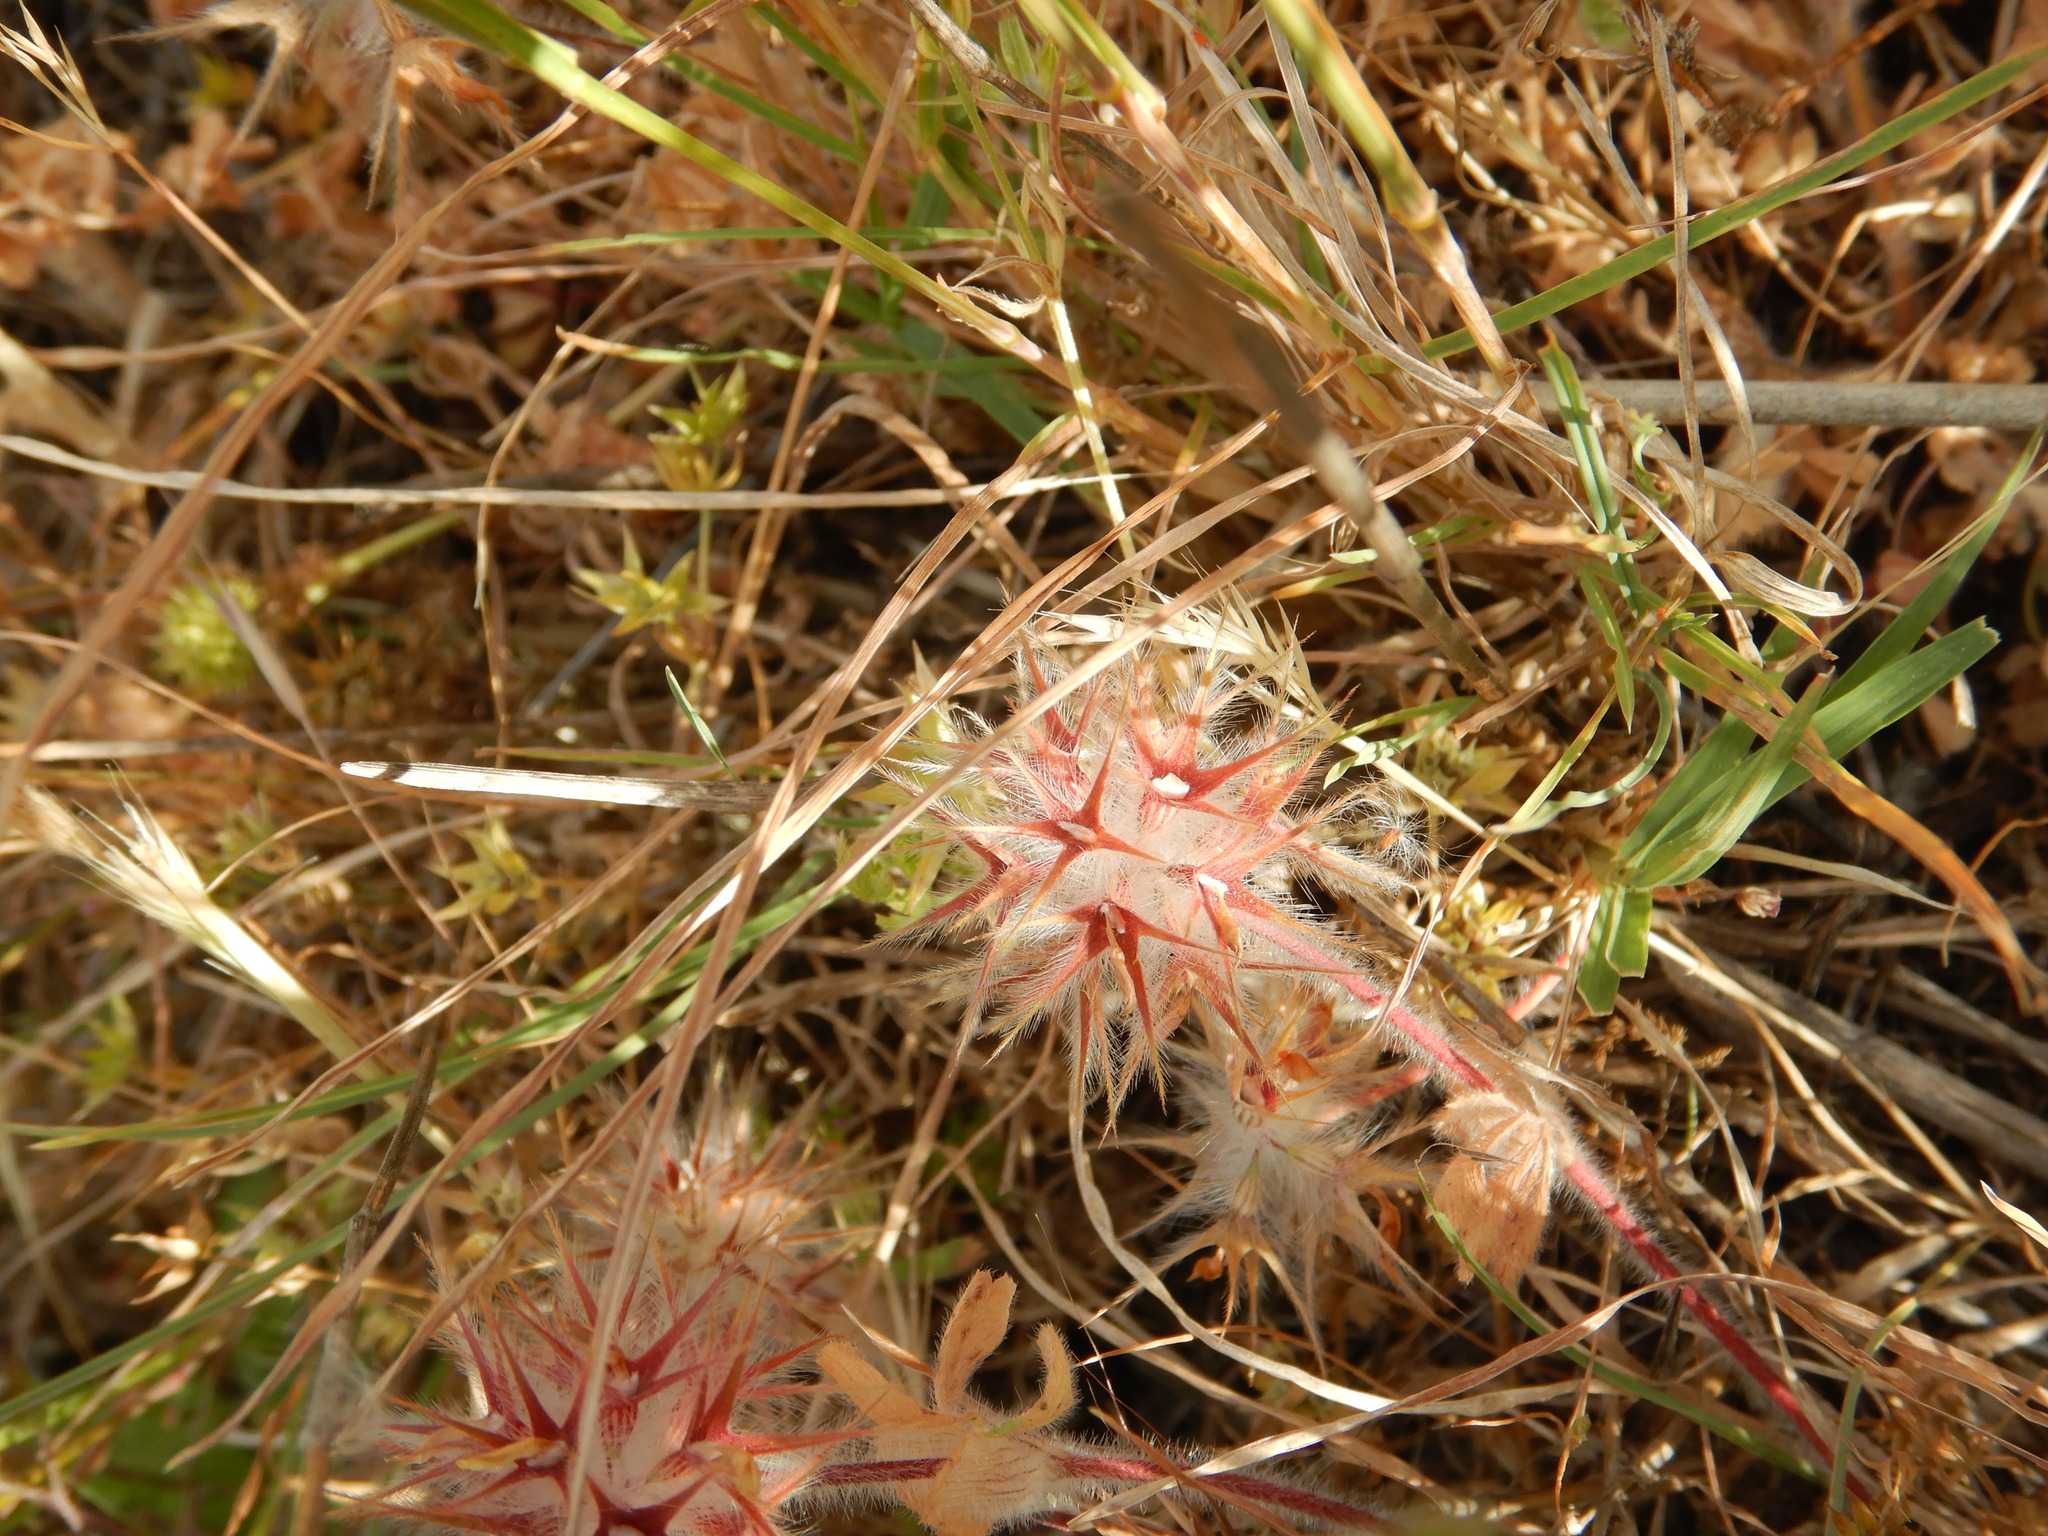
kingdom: Plantae
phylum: Tracheophyta
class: Magnoliopsida
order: Fabales
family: Fabaceae
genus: Trifolium
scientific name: Trifolium stellatum
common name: Starry clover
